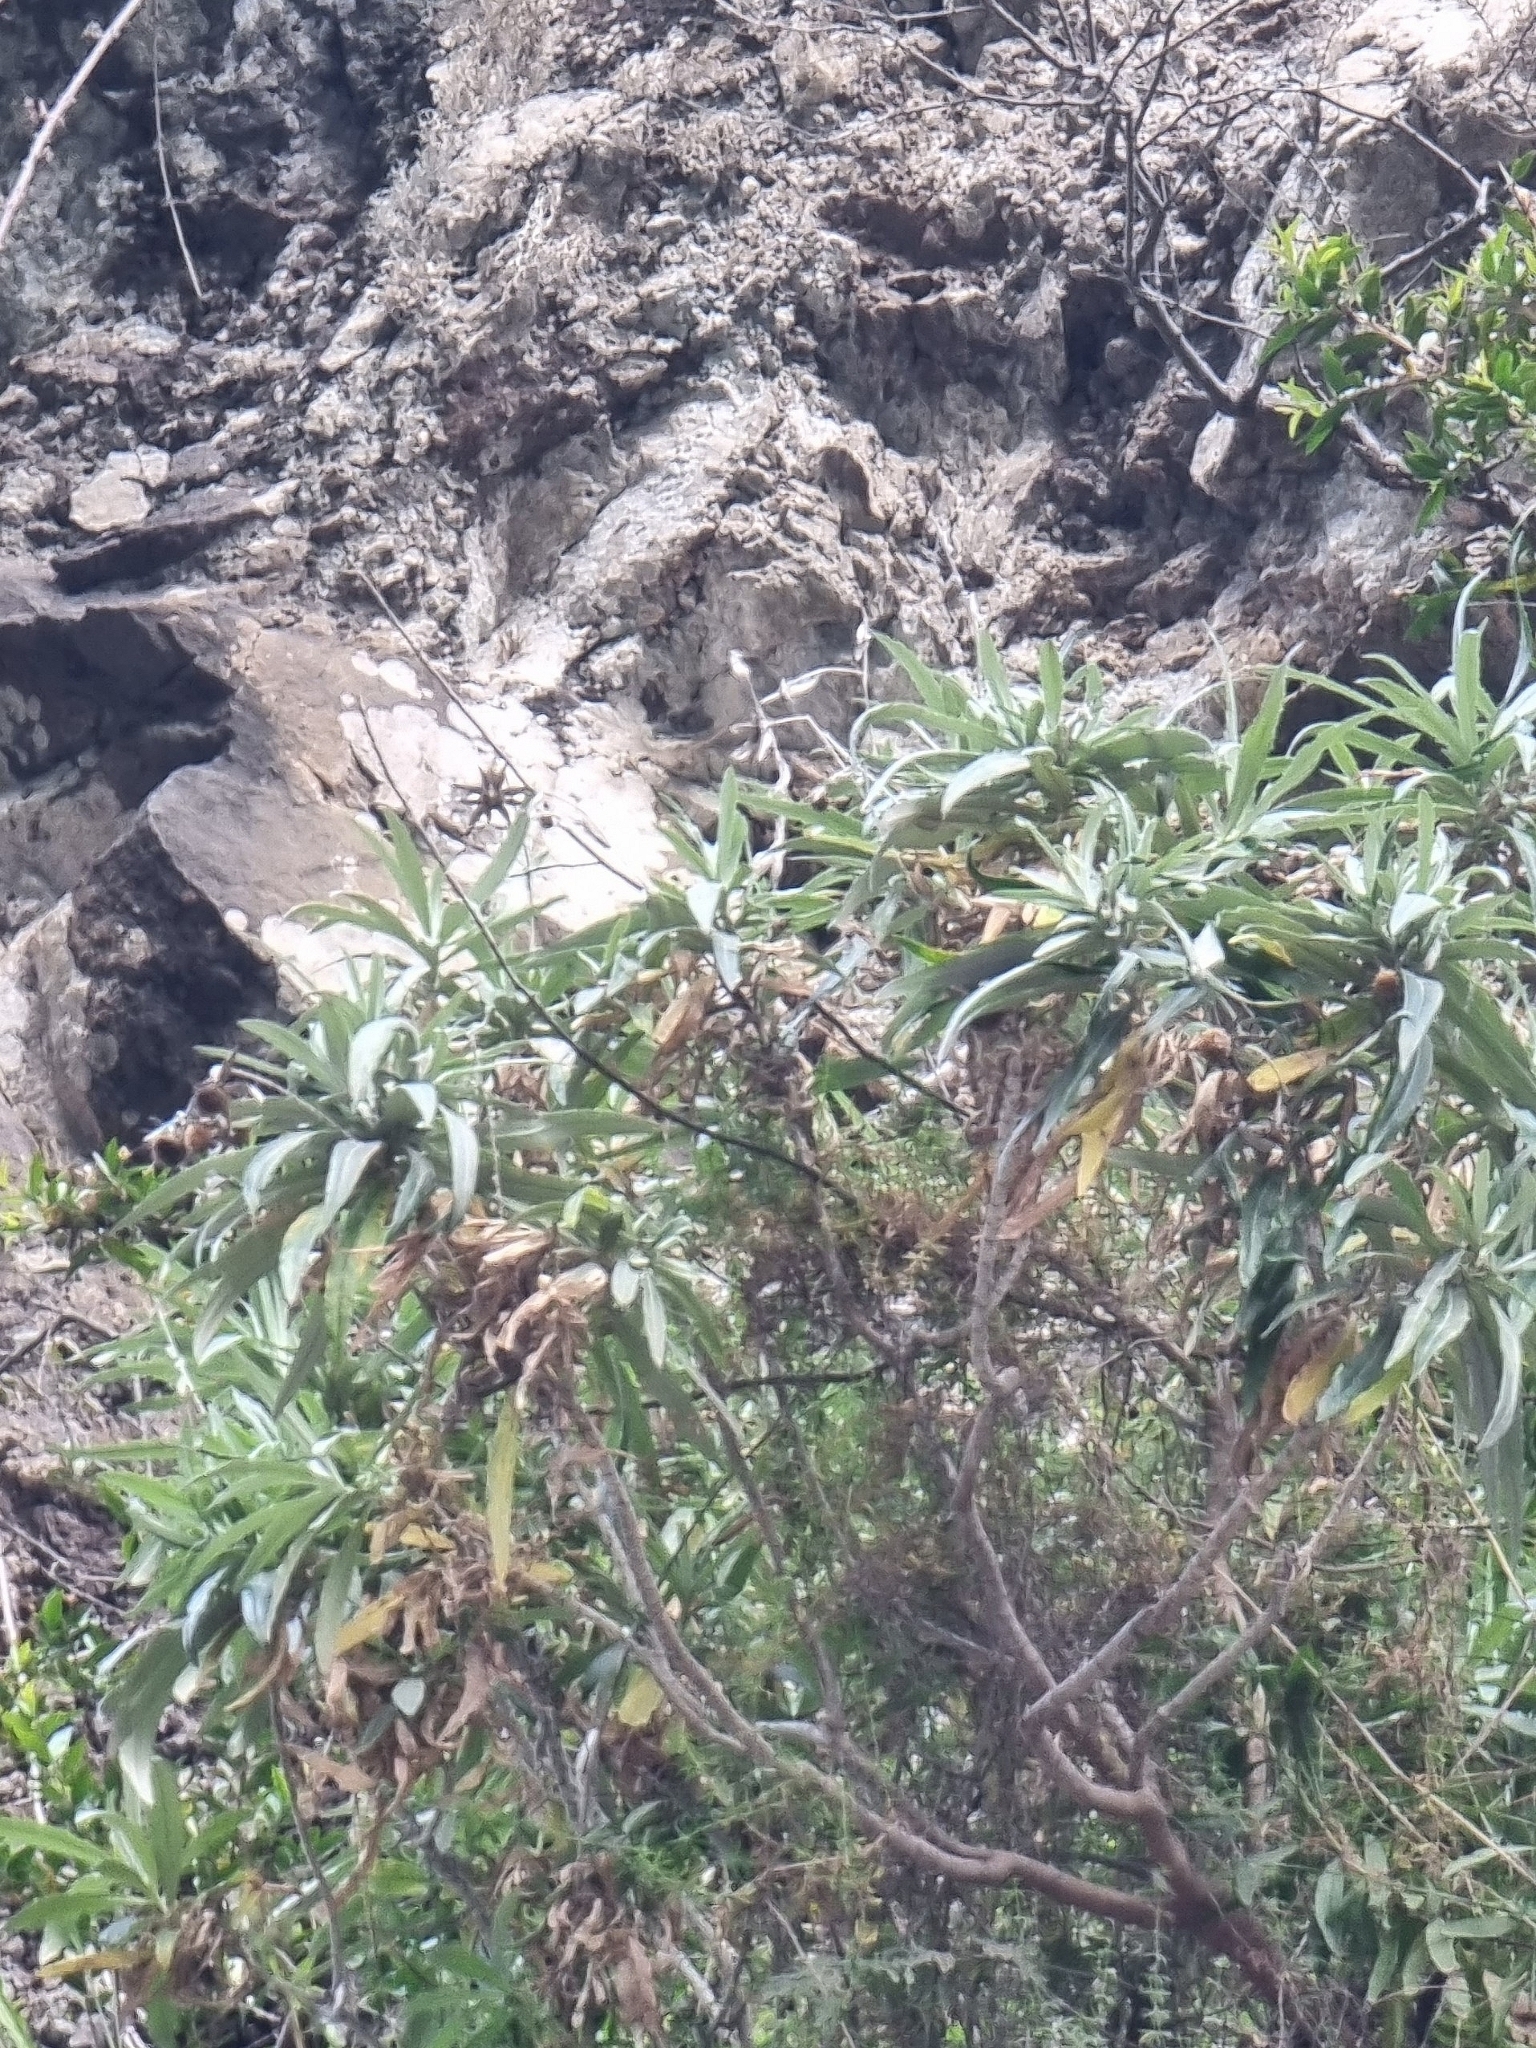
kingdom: Plantae
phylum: Tracheophyta
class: Magnoliopsida
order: Asterales
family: Asteraceae
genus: Carlina
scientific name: Carlina salicifolia
